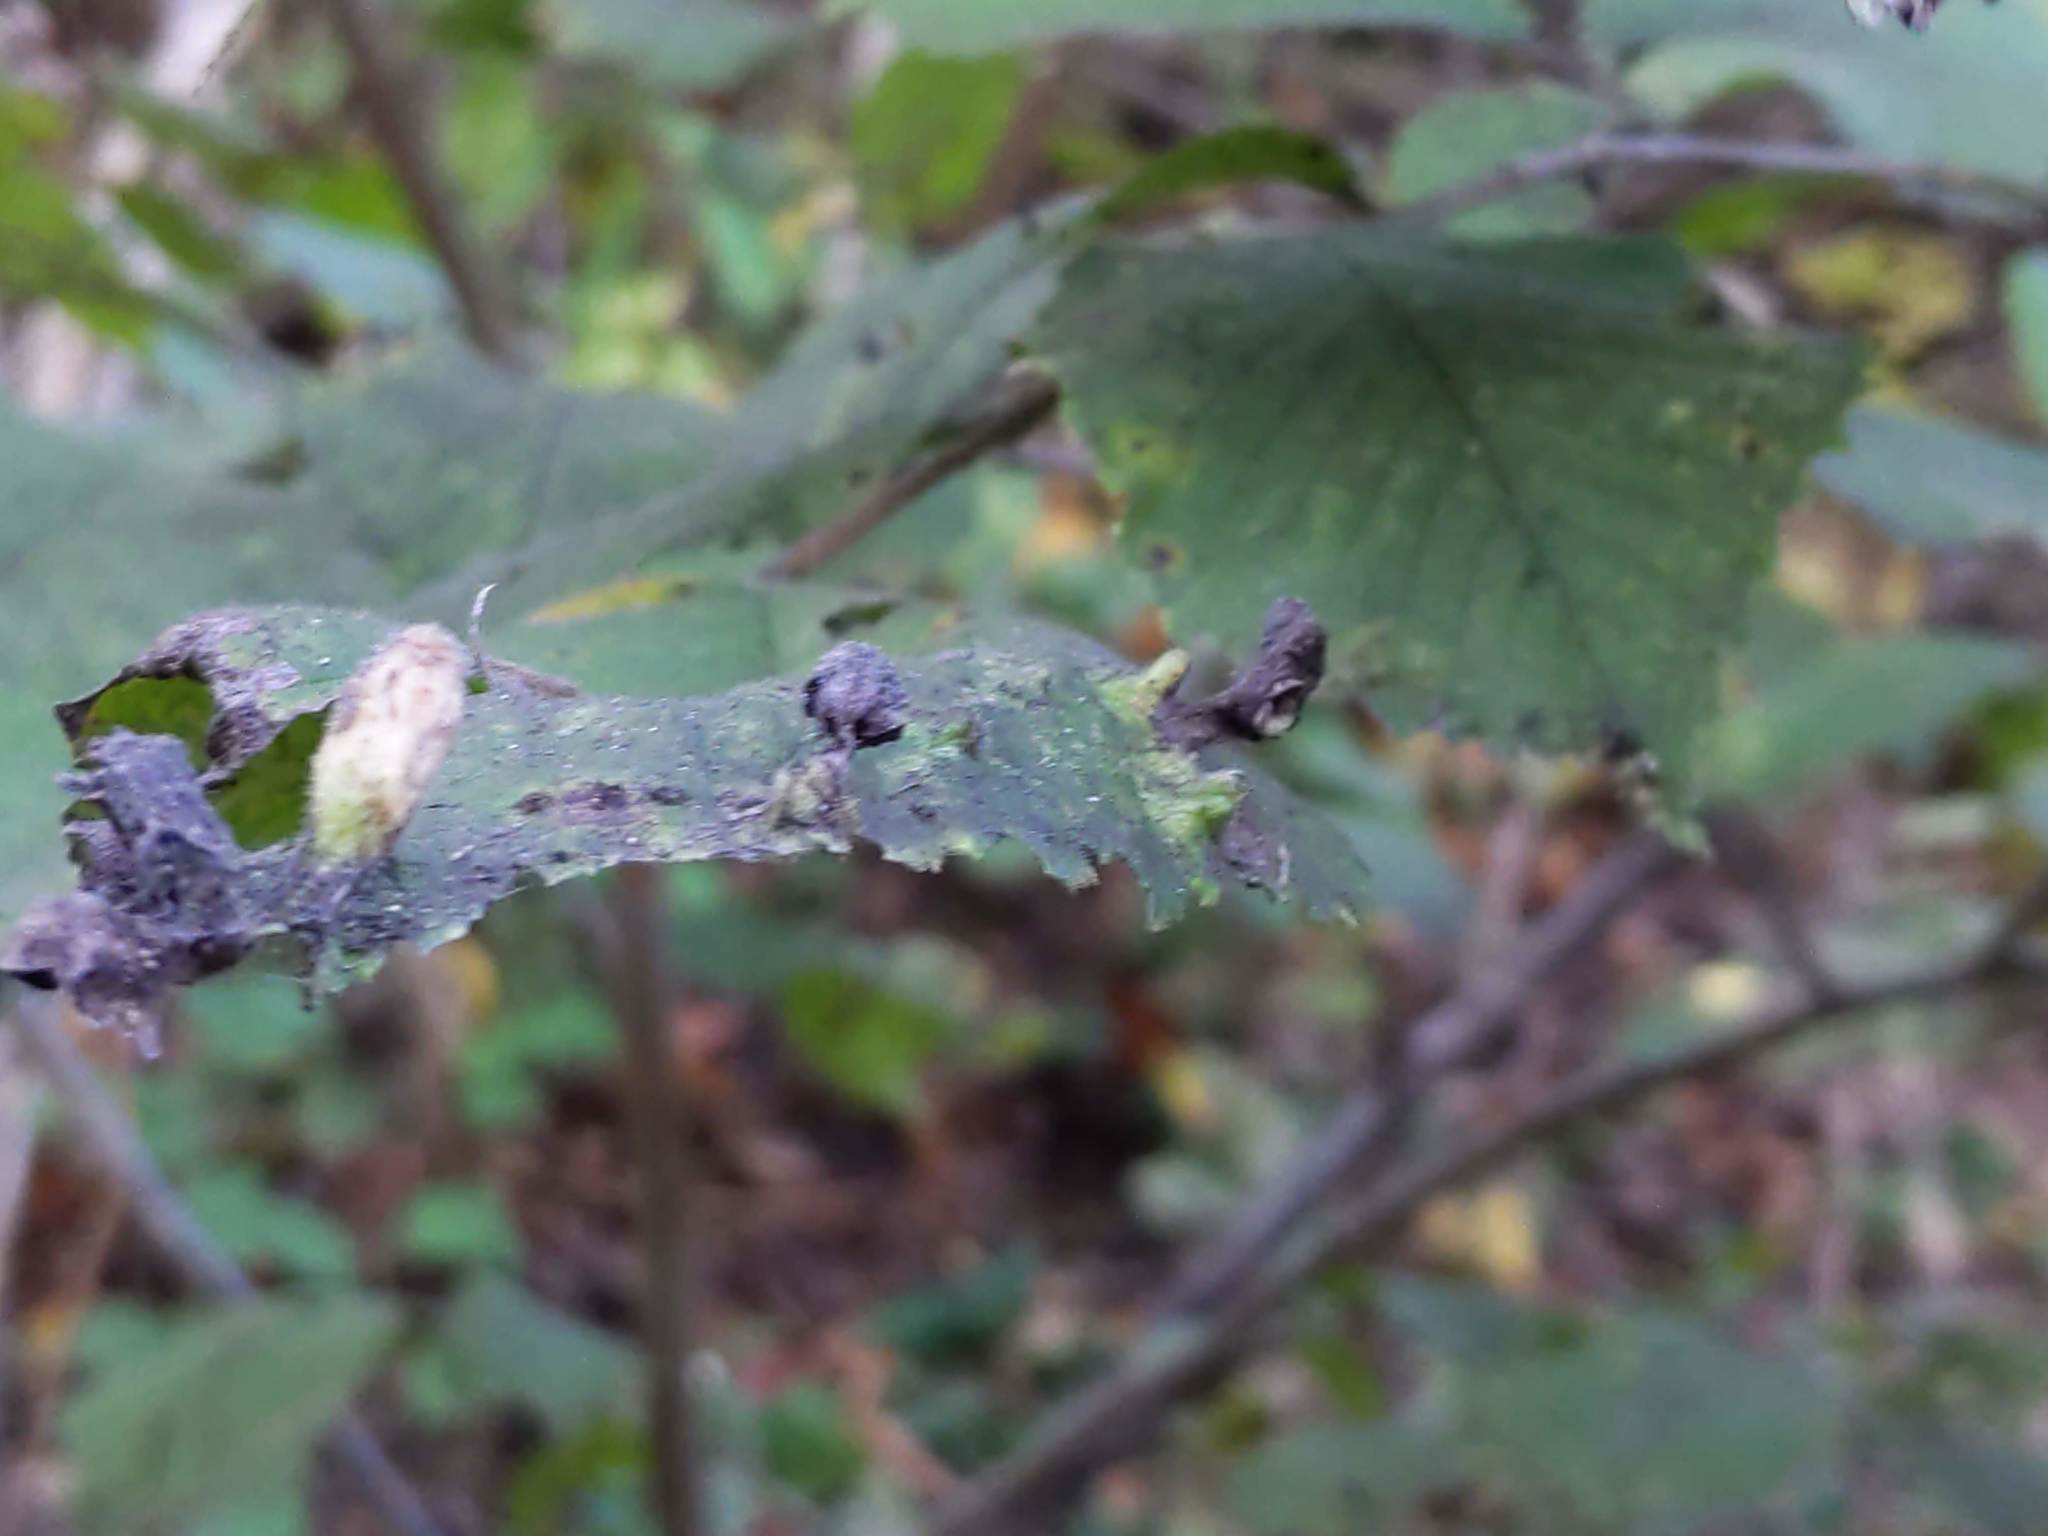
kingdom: Animalia
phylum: Arthropoda
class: Insecta
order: Hemiptera
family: Aphididae
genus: Tetraneura
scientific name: Tetraneura nigriabdominalis
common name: Aphid
